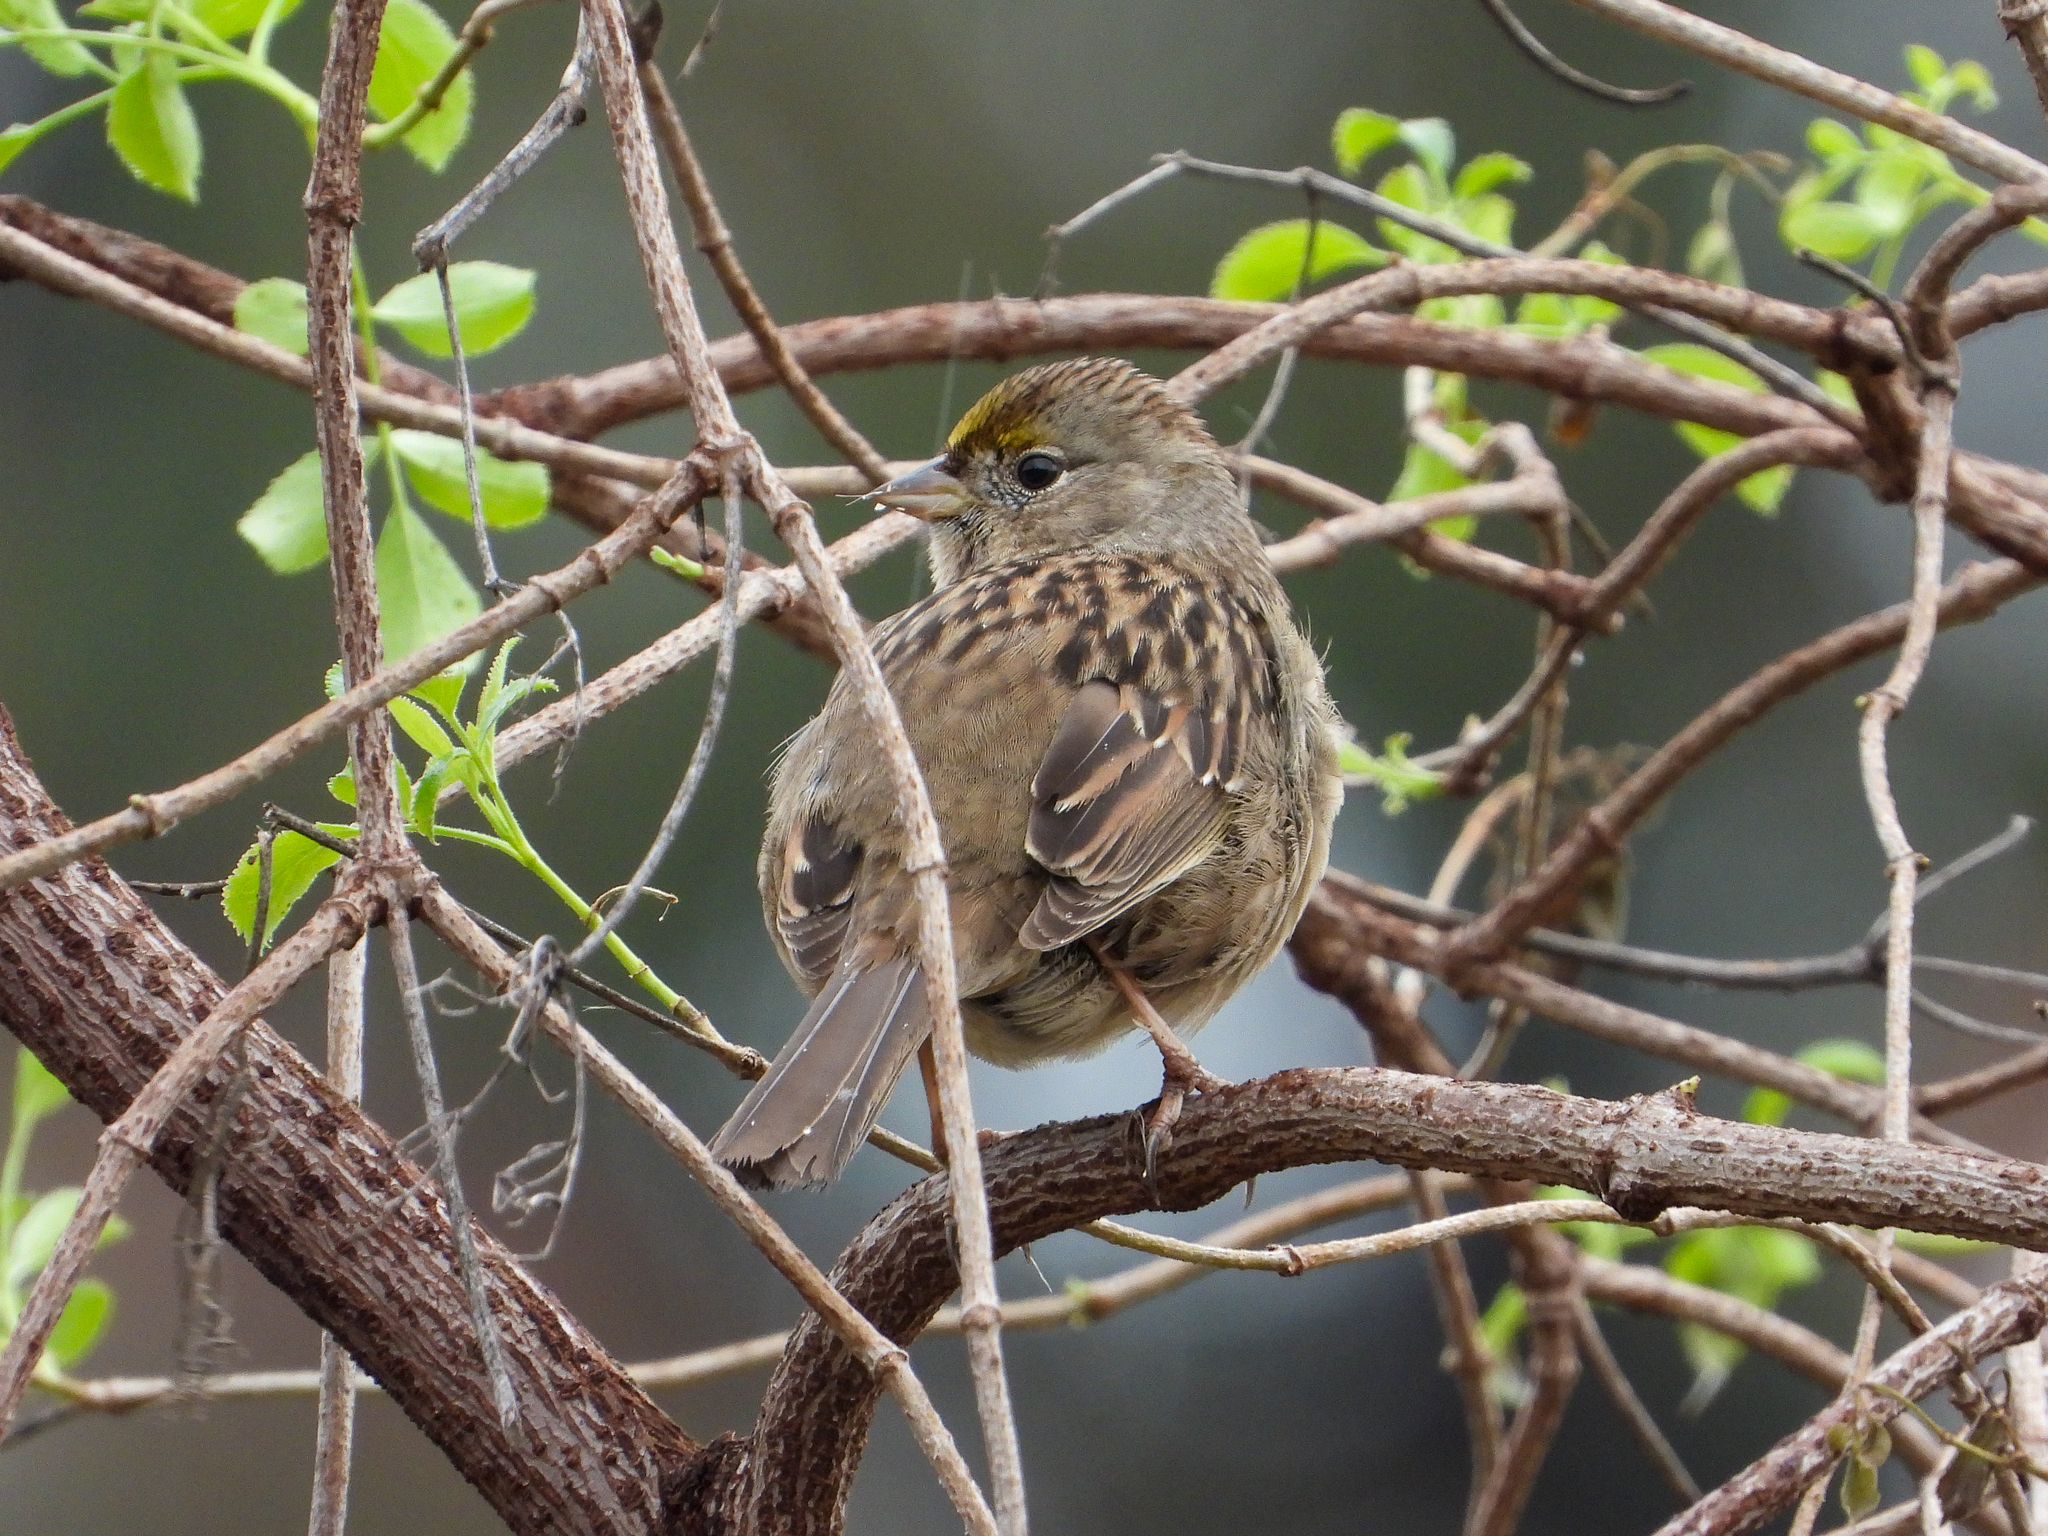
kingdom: Animalia
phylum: Chordata
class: Aves
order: Passeriformes
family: Passerellidae
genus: Zonotrichia
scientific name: Zonotrichia atricapilla
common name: Golden-crowned sparrow
